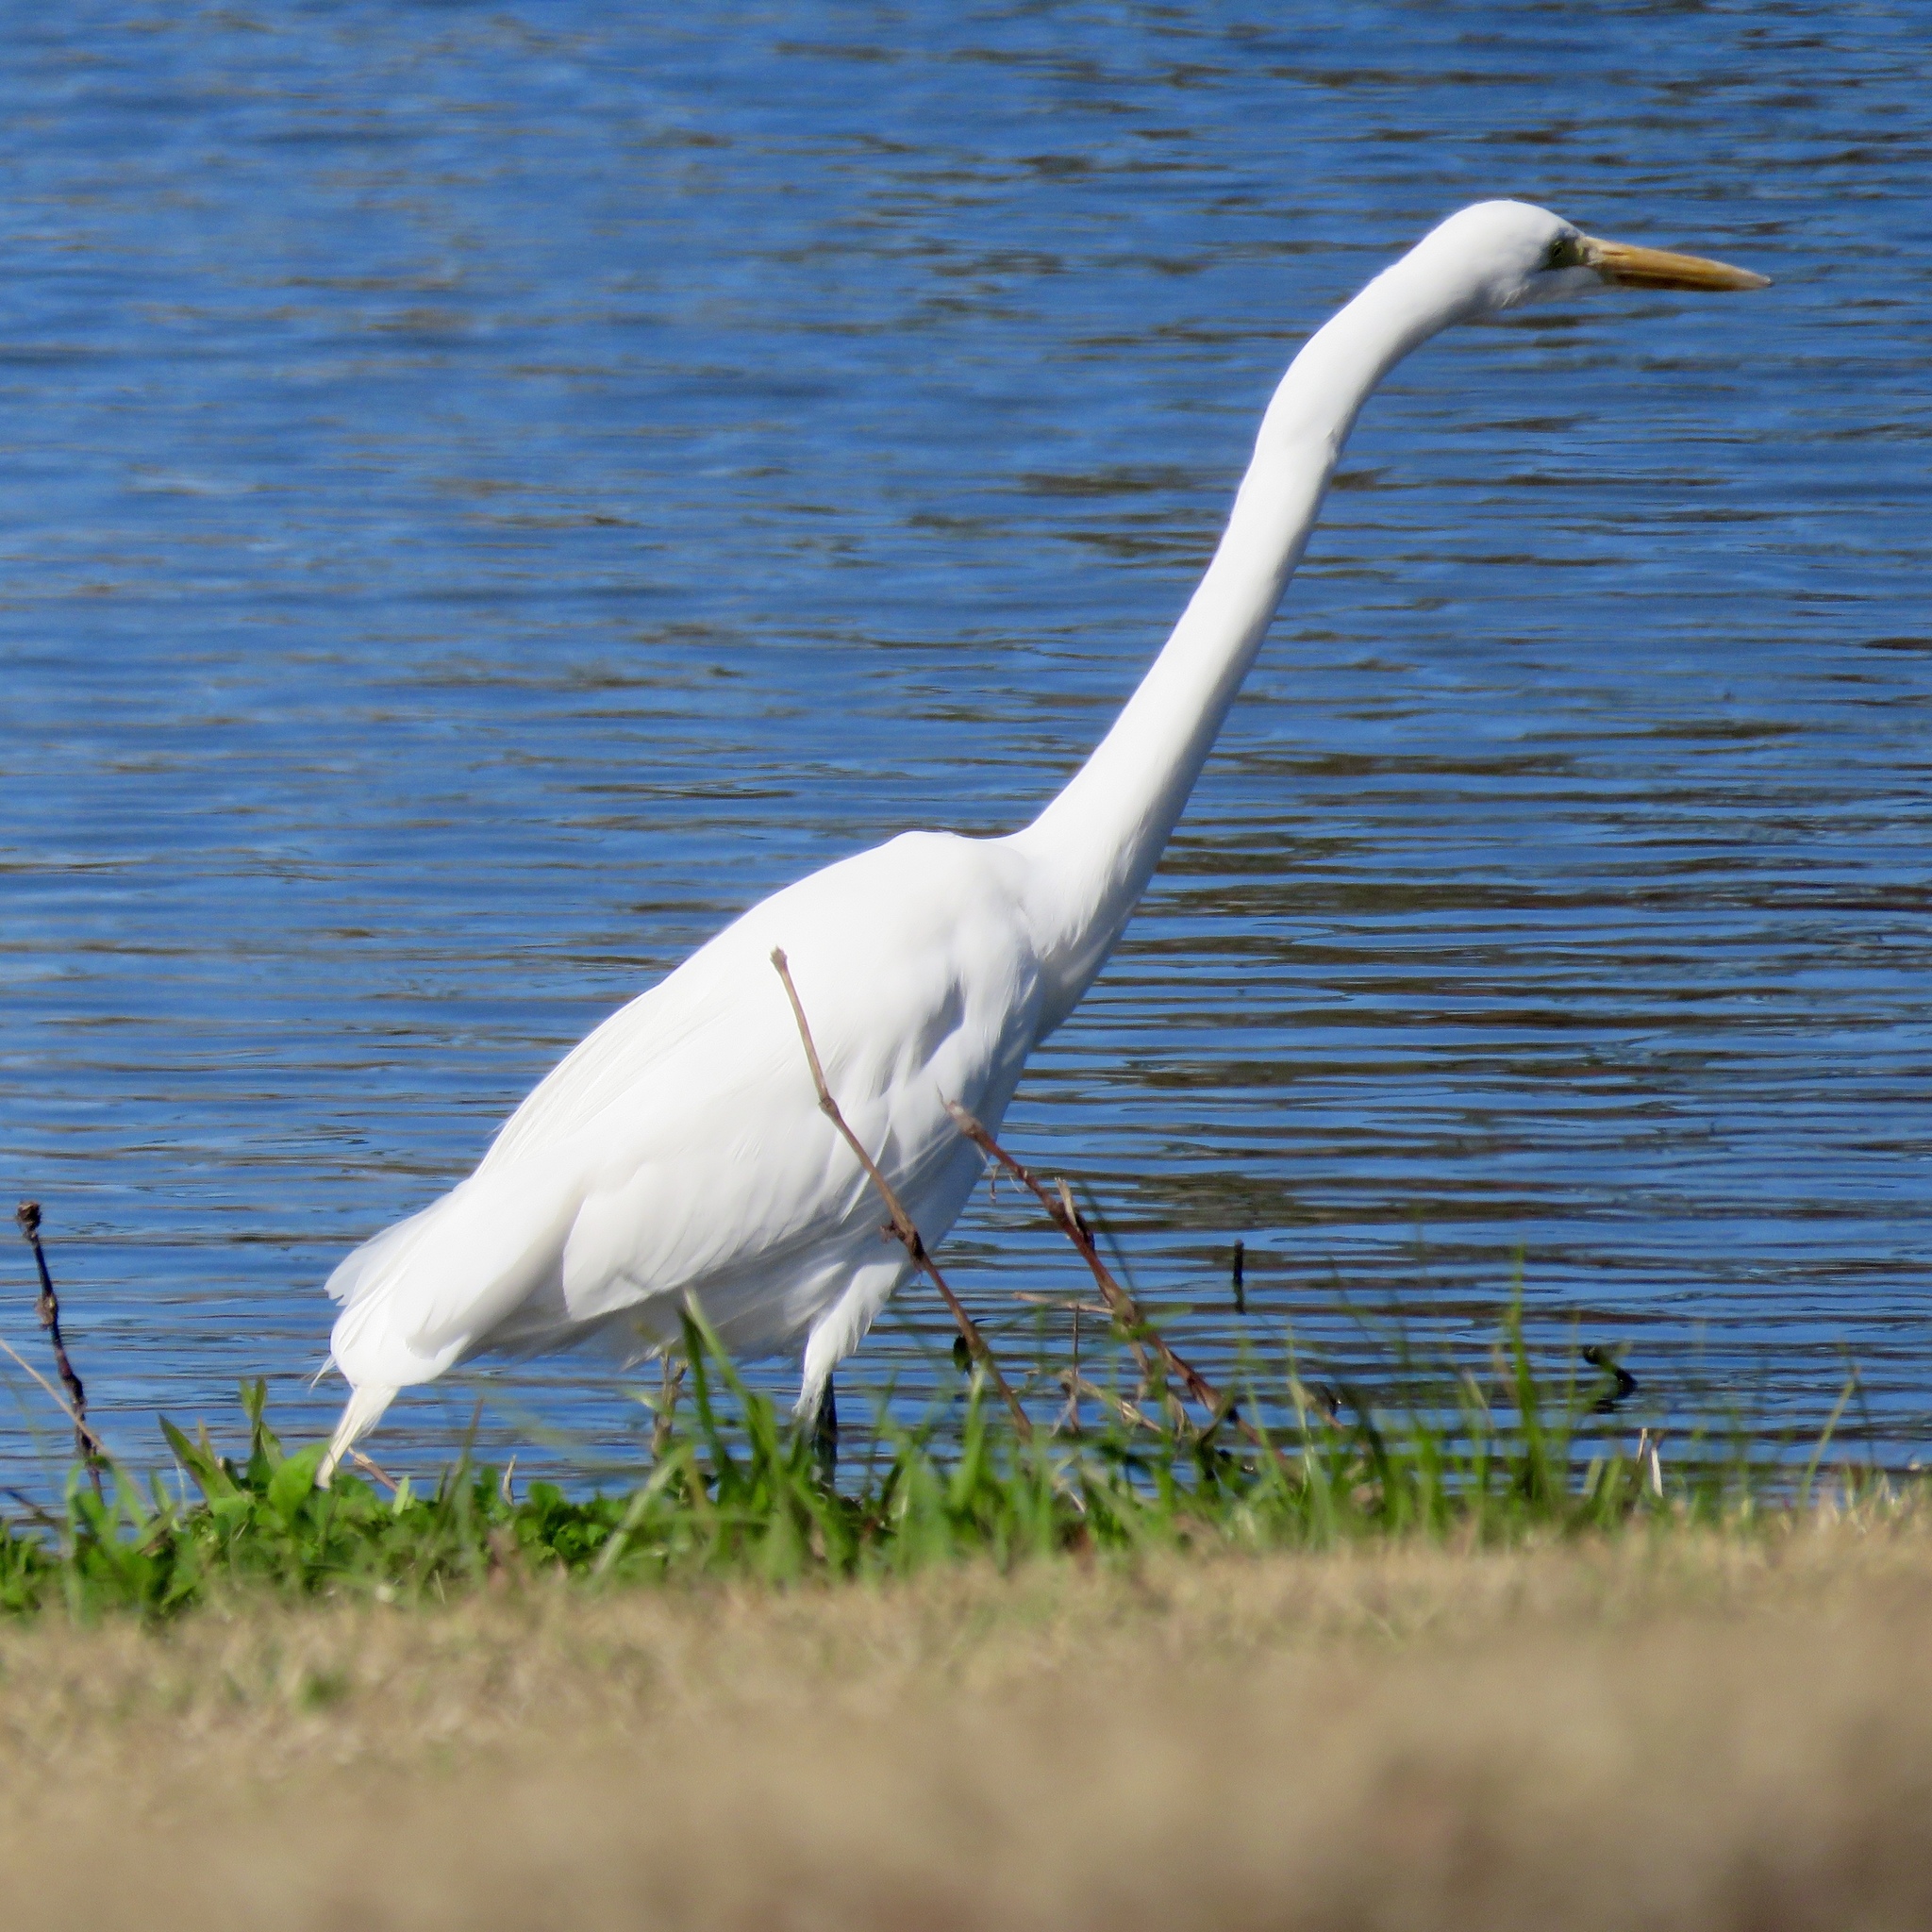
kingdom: Animalia
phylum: Chordata
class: Aves
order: Pelecaniformes
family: Ardeidae
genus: Ardea
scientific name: Ardea alba
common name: Great egret
